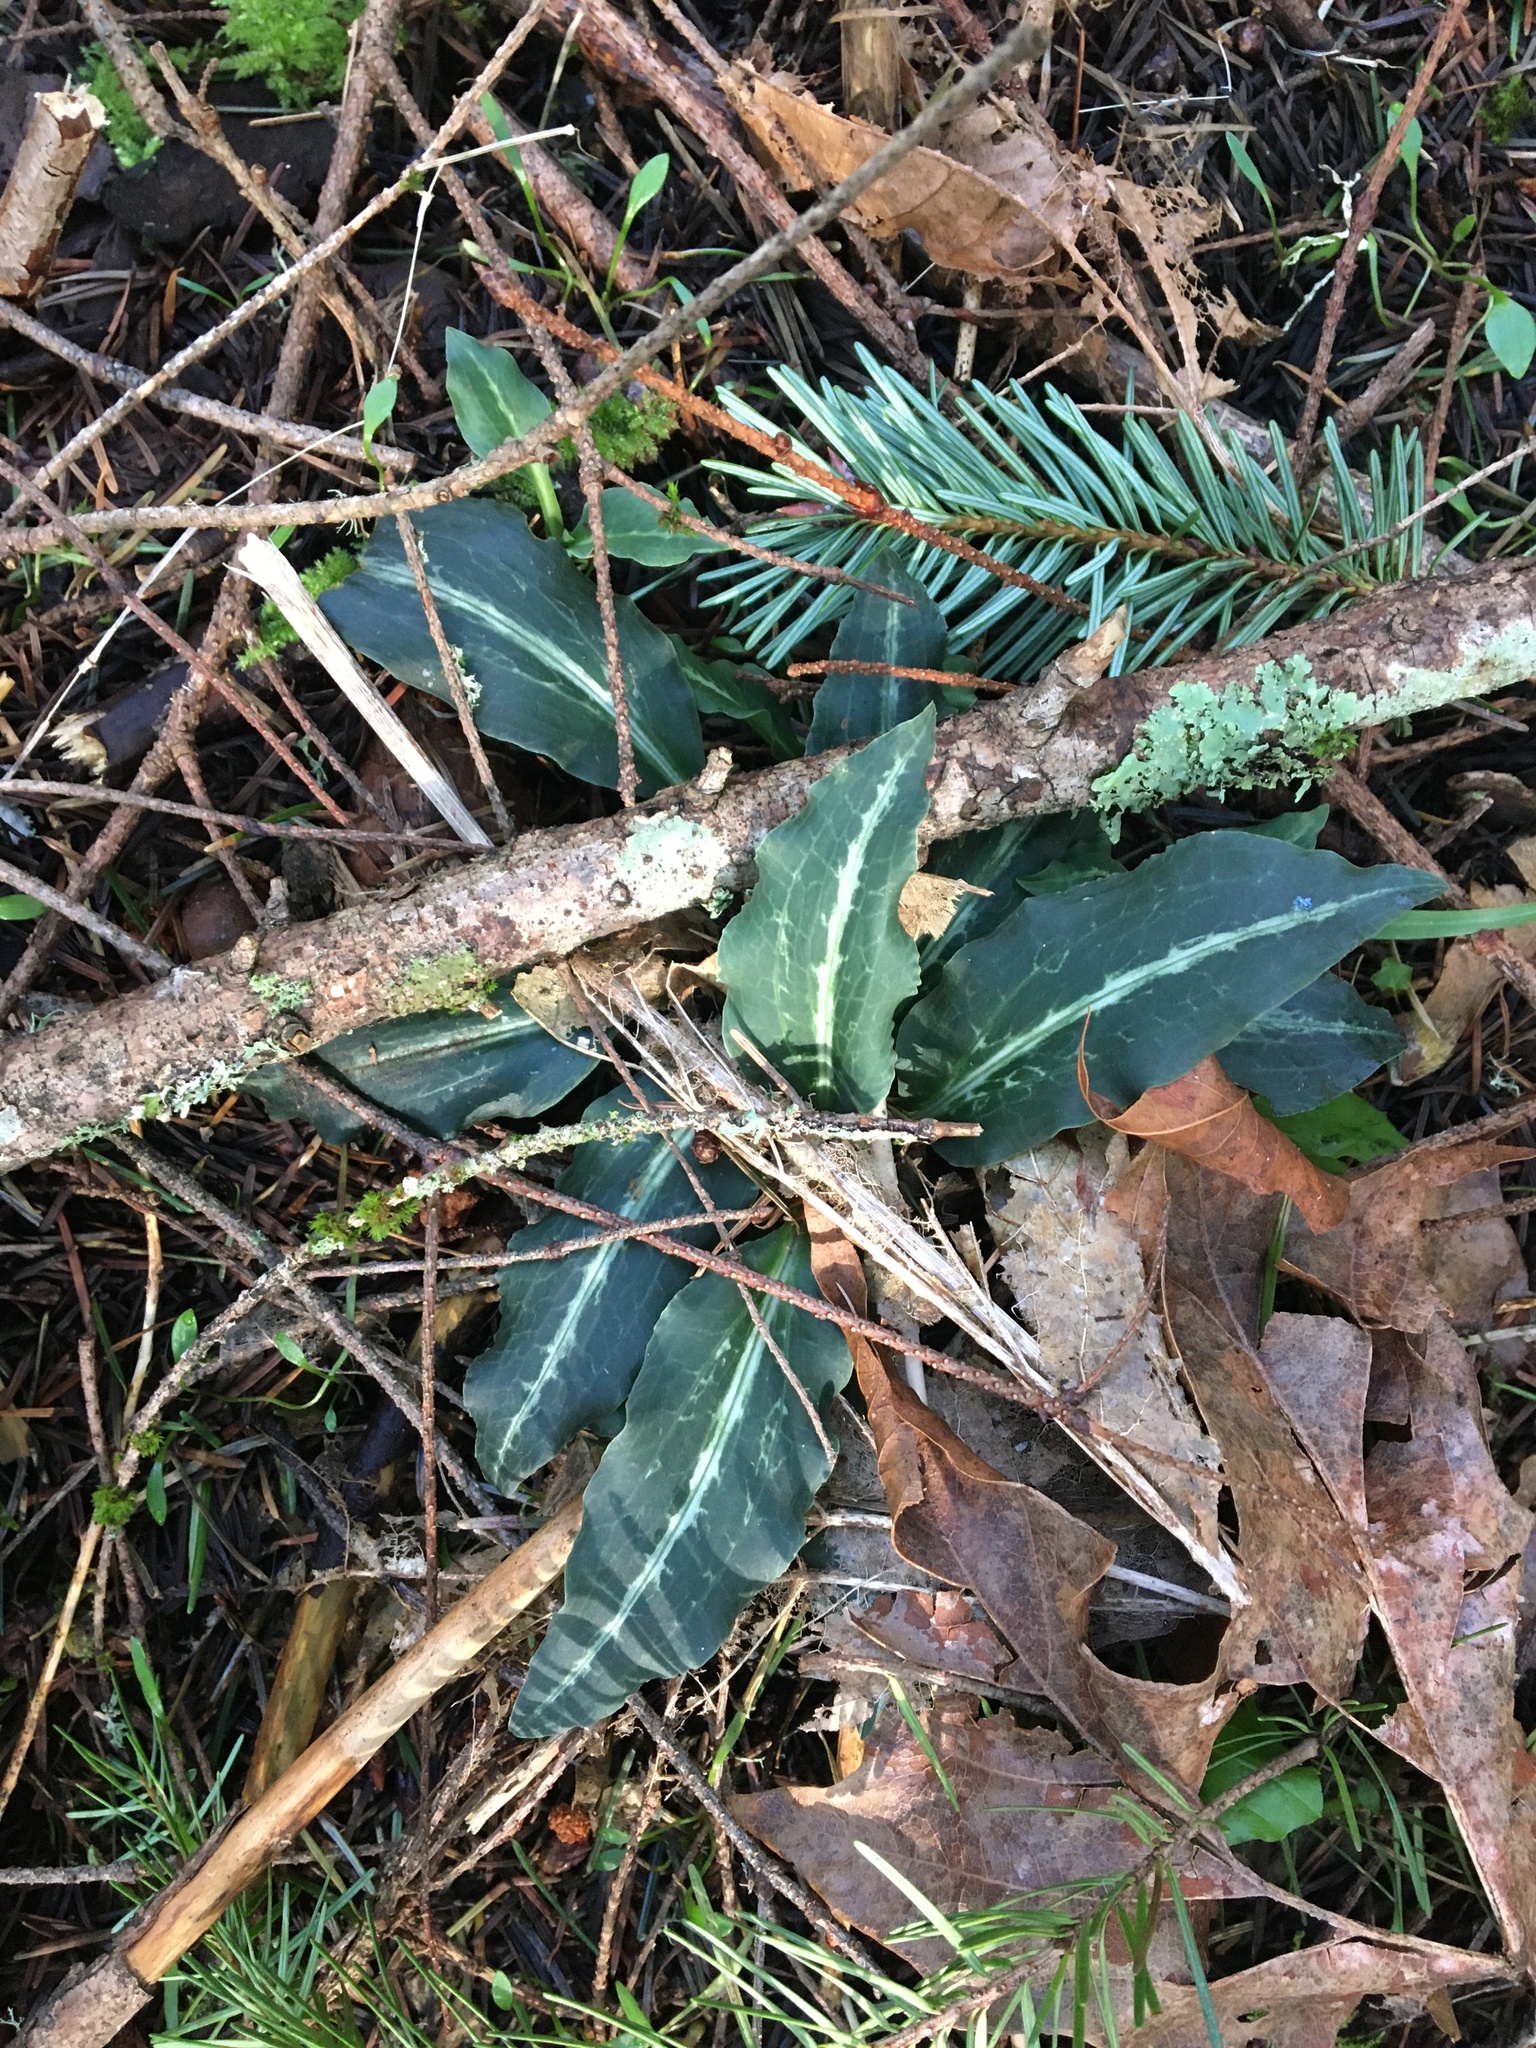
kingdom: Plantae
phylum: Tracheophyta
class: Liliopsida
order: Asparagales
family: Orchidaceae
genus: Goodyera
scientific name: Goodyera oblongifolia
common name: Giant rattlesnake-plantain
